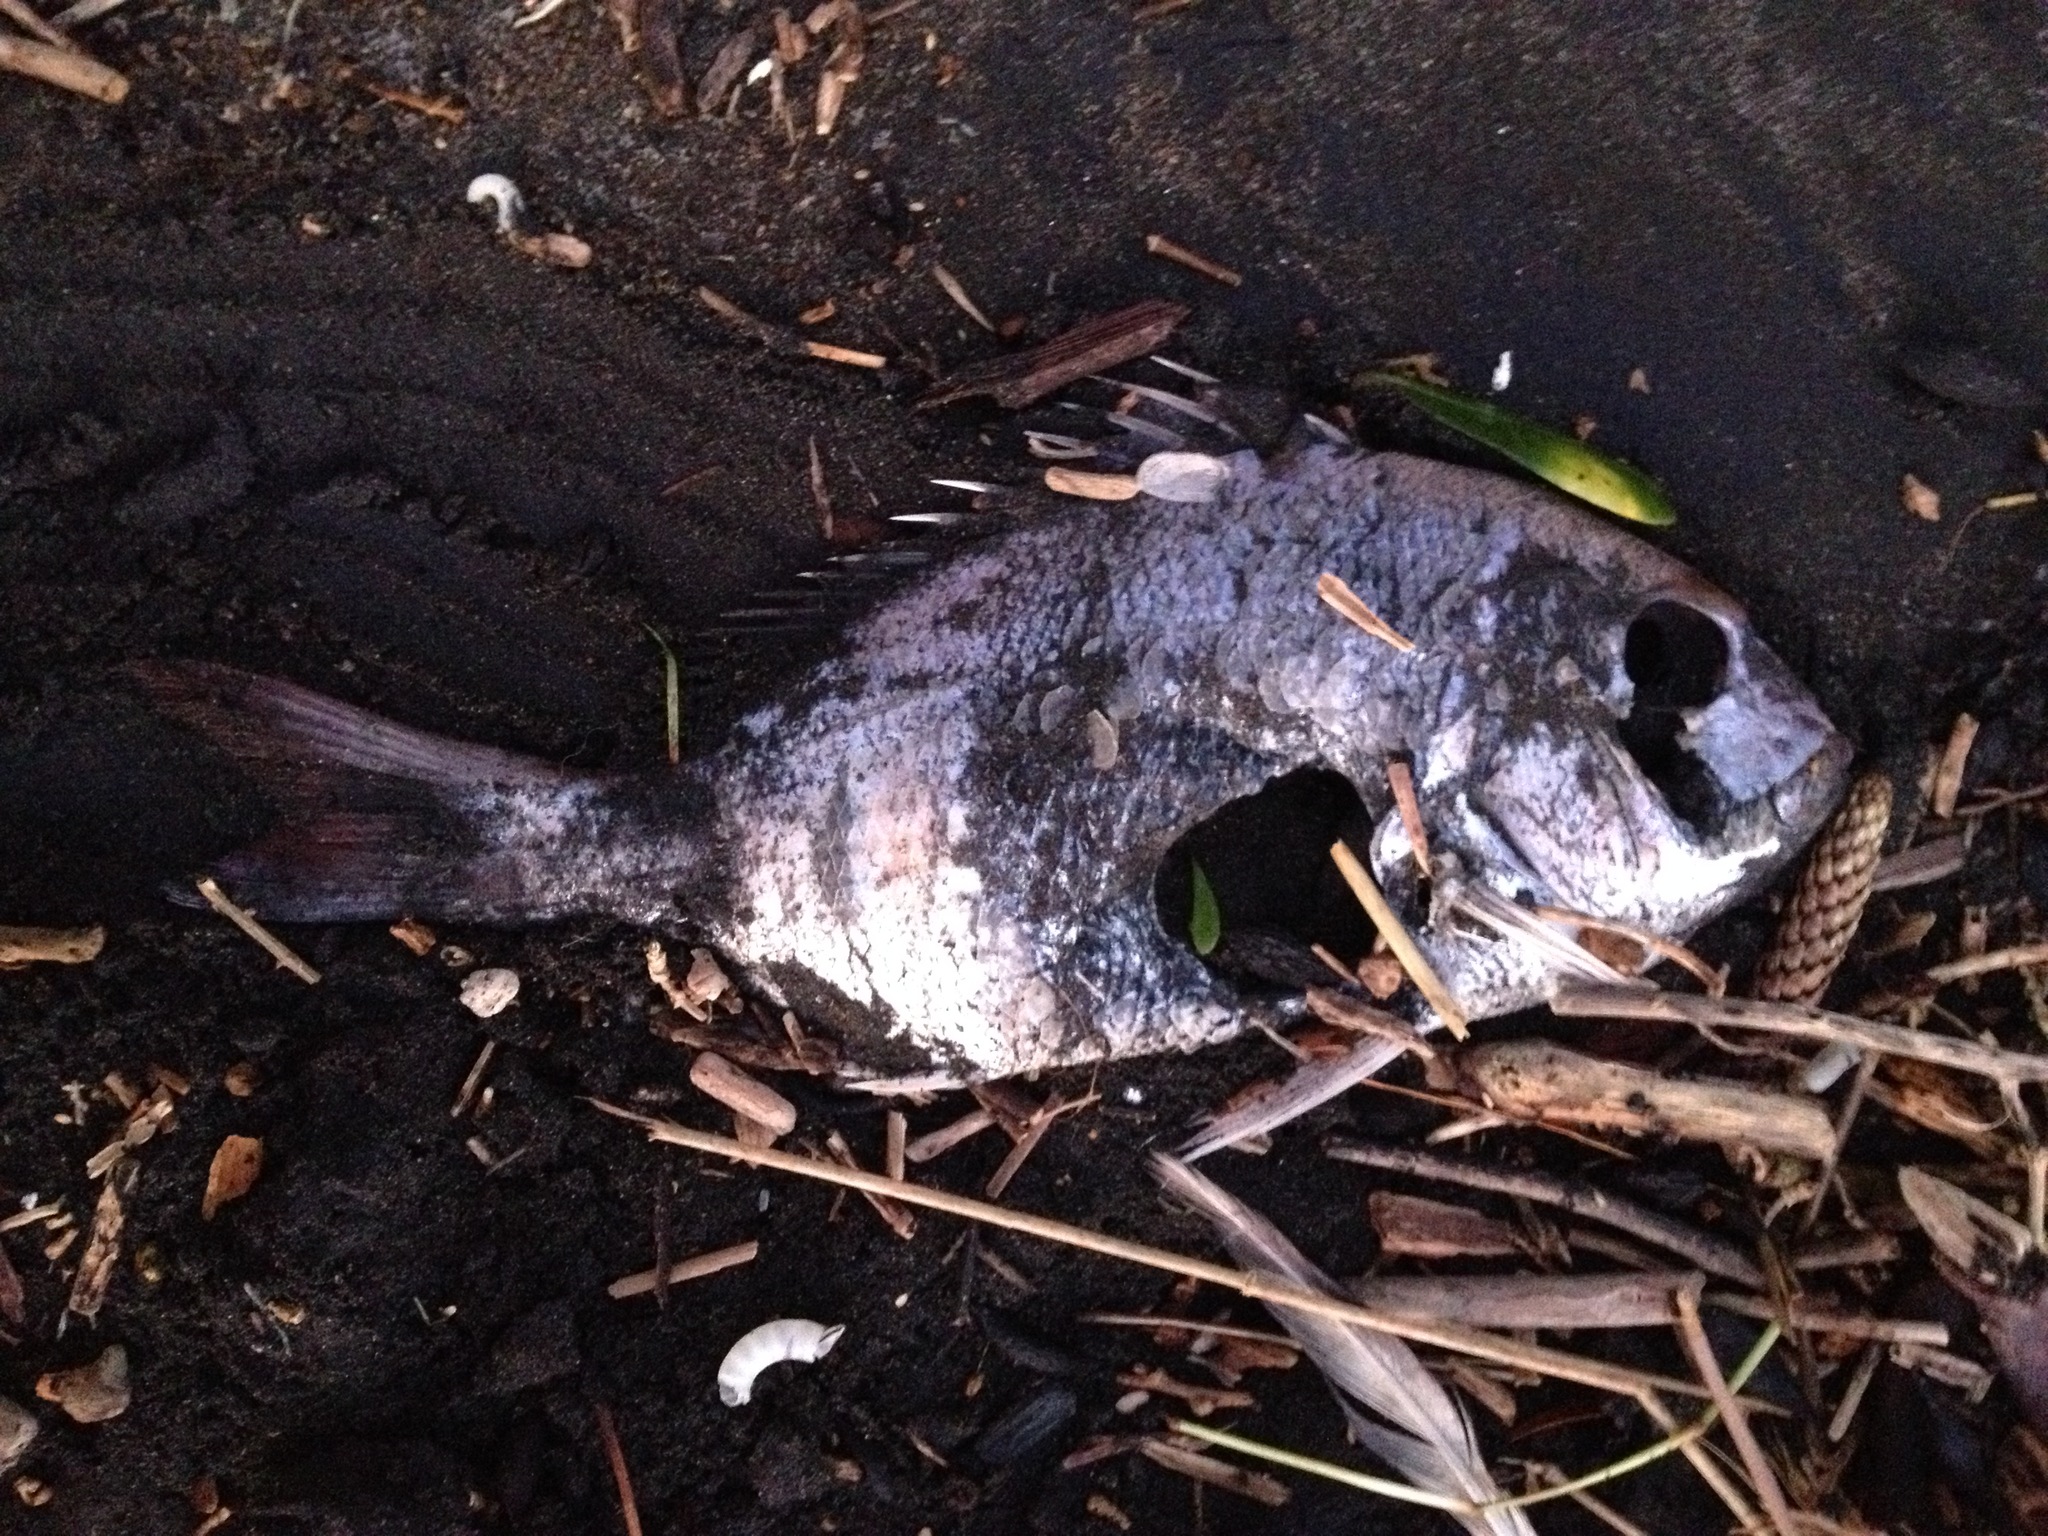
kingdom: Animalia
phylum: Chordata
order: Perciformes
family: Sparidae
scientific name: Sparidae
